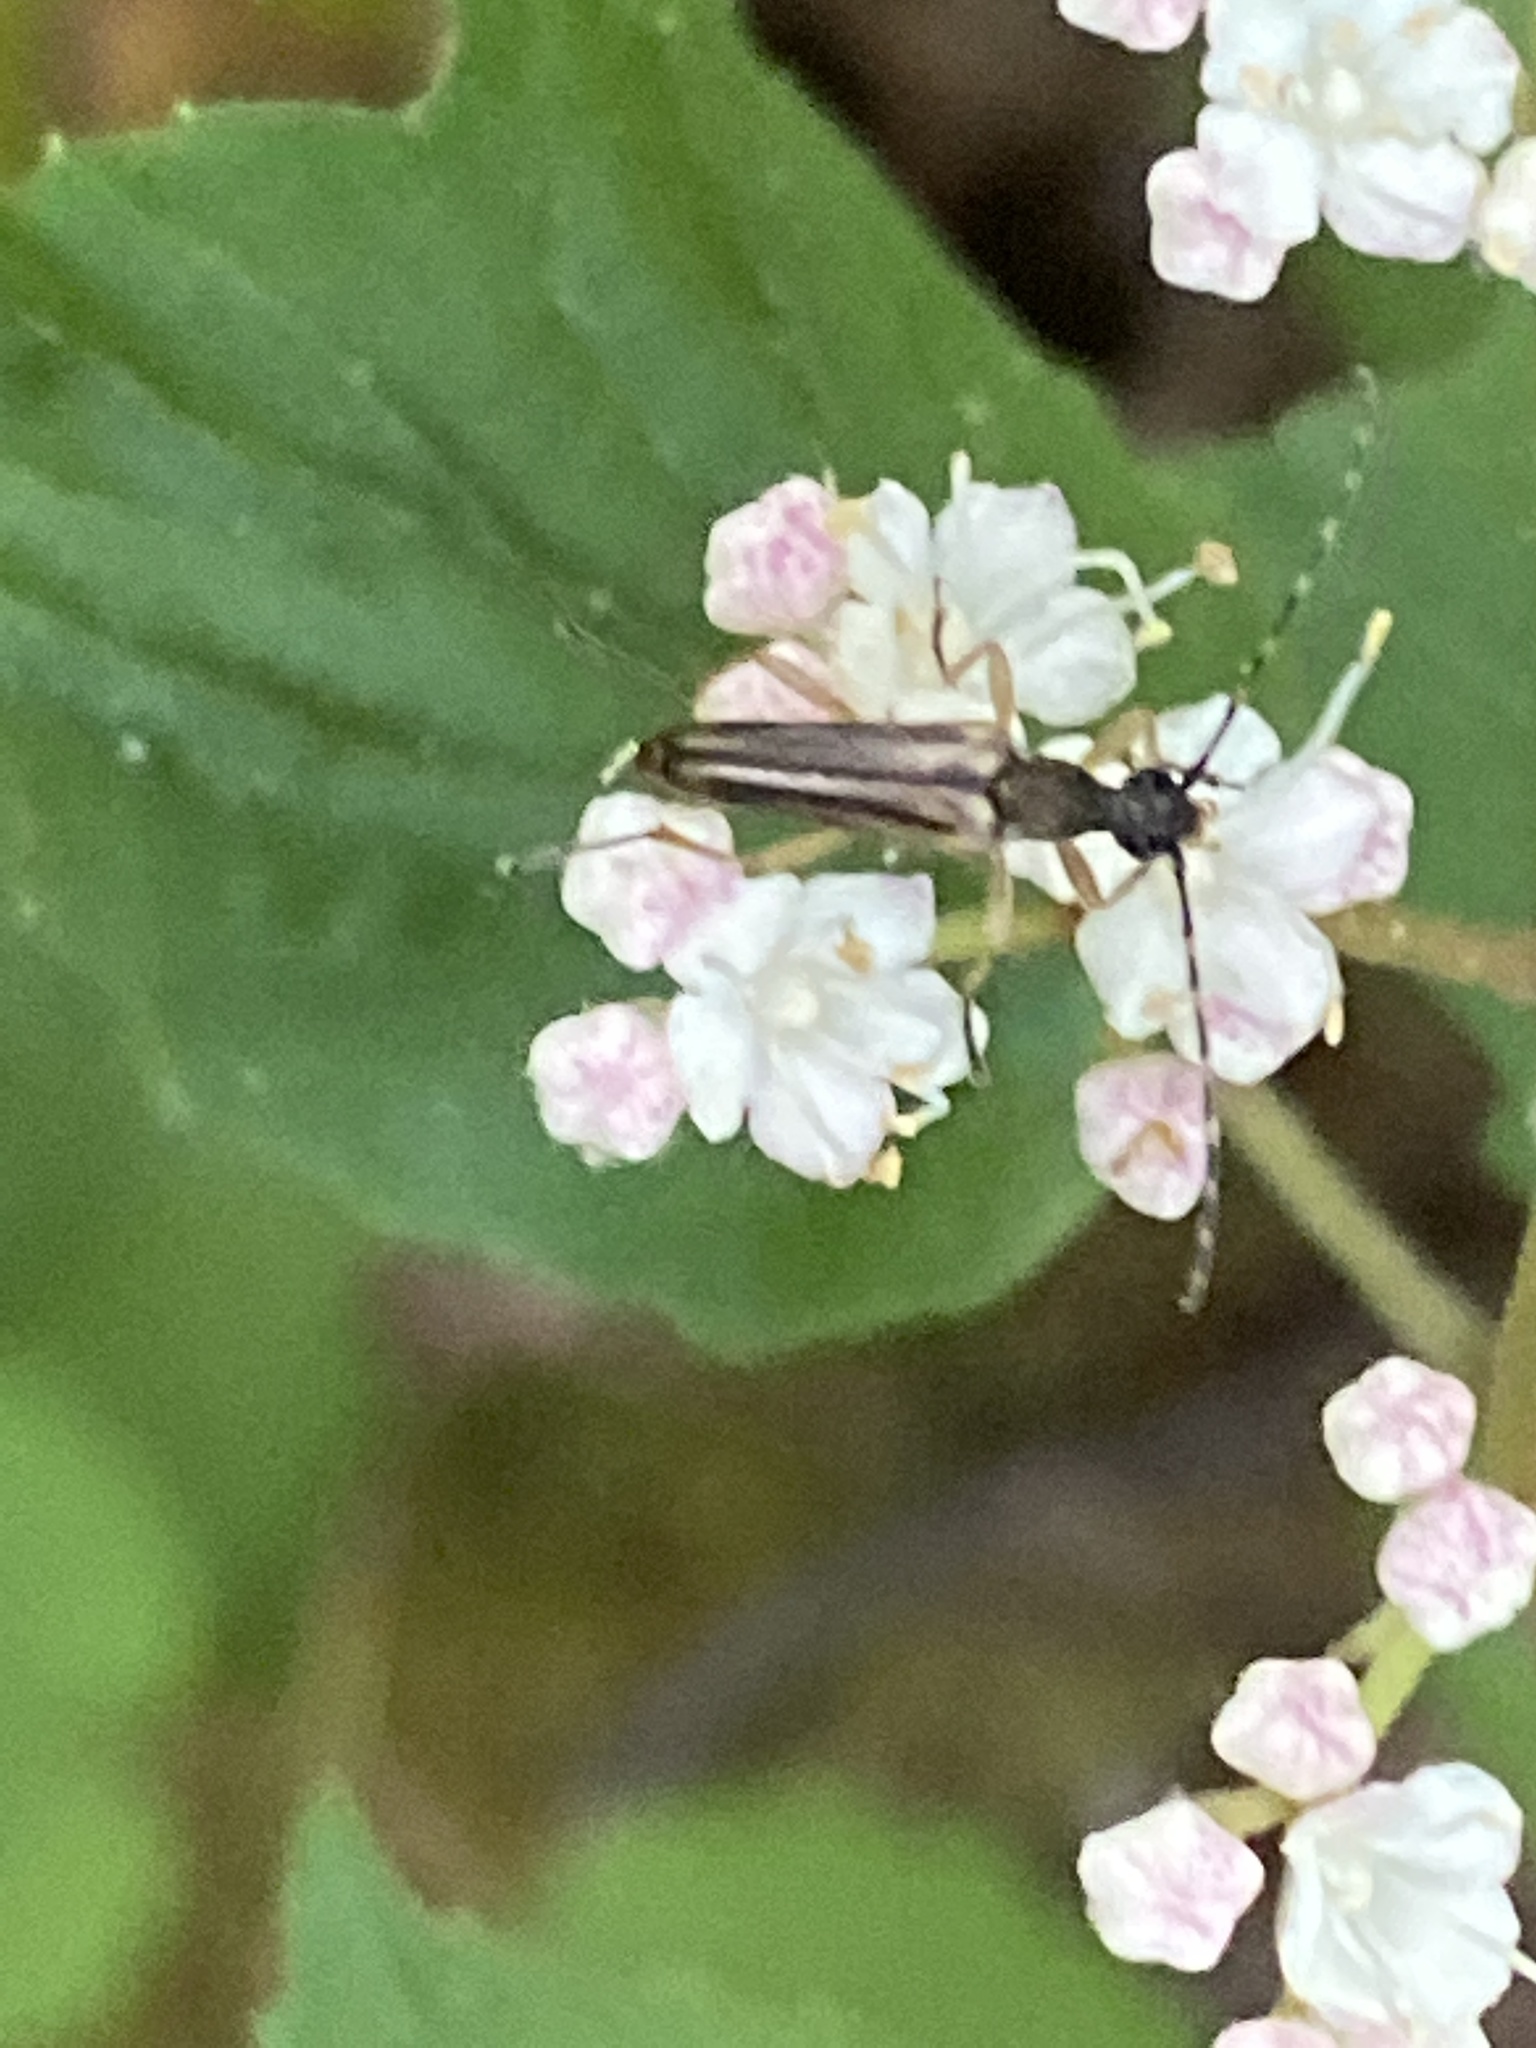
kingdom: Animalia
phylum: Arthropoda
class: Insecta
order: Coleoptera
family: Cerambycidae
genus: Analeptura
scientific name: Analeptura lineola
